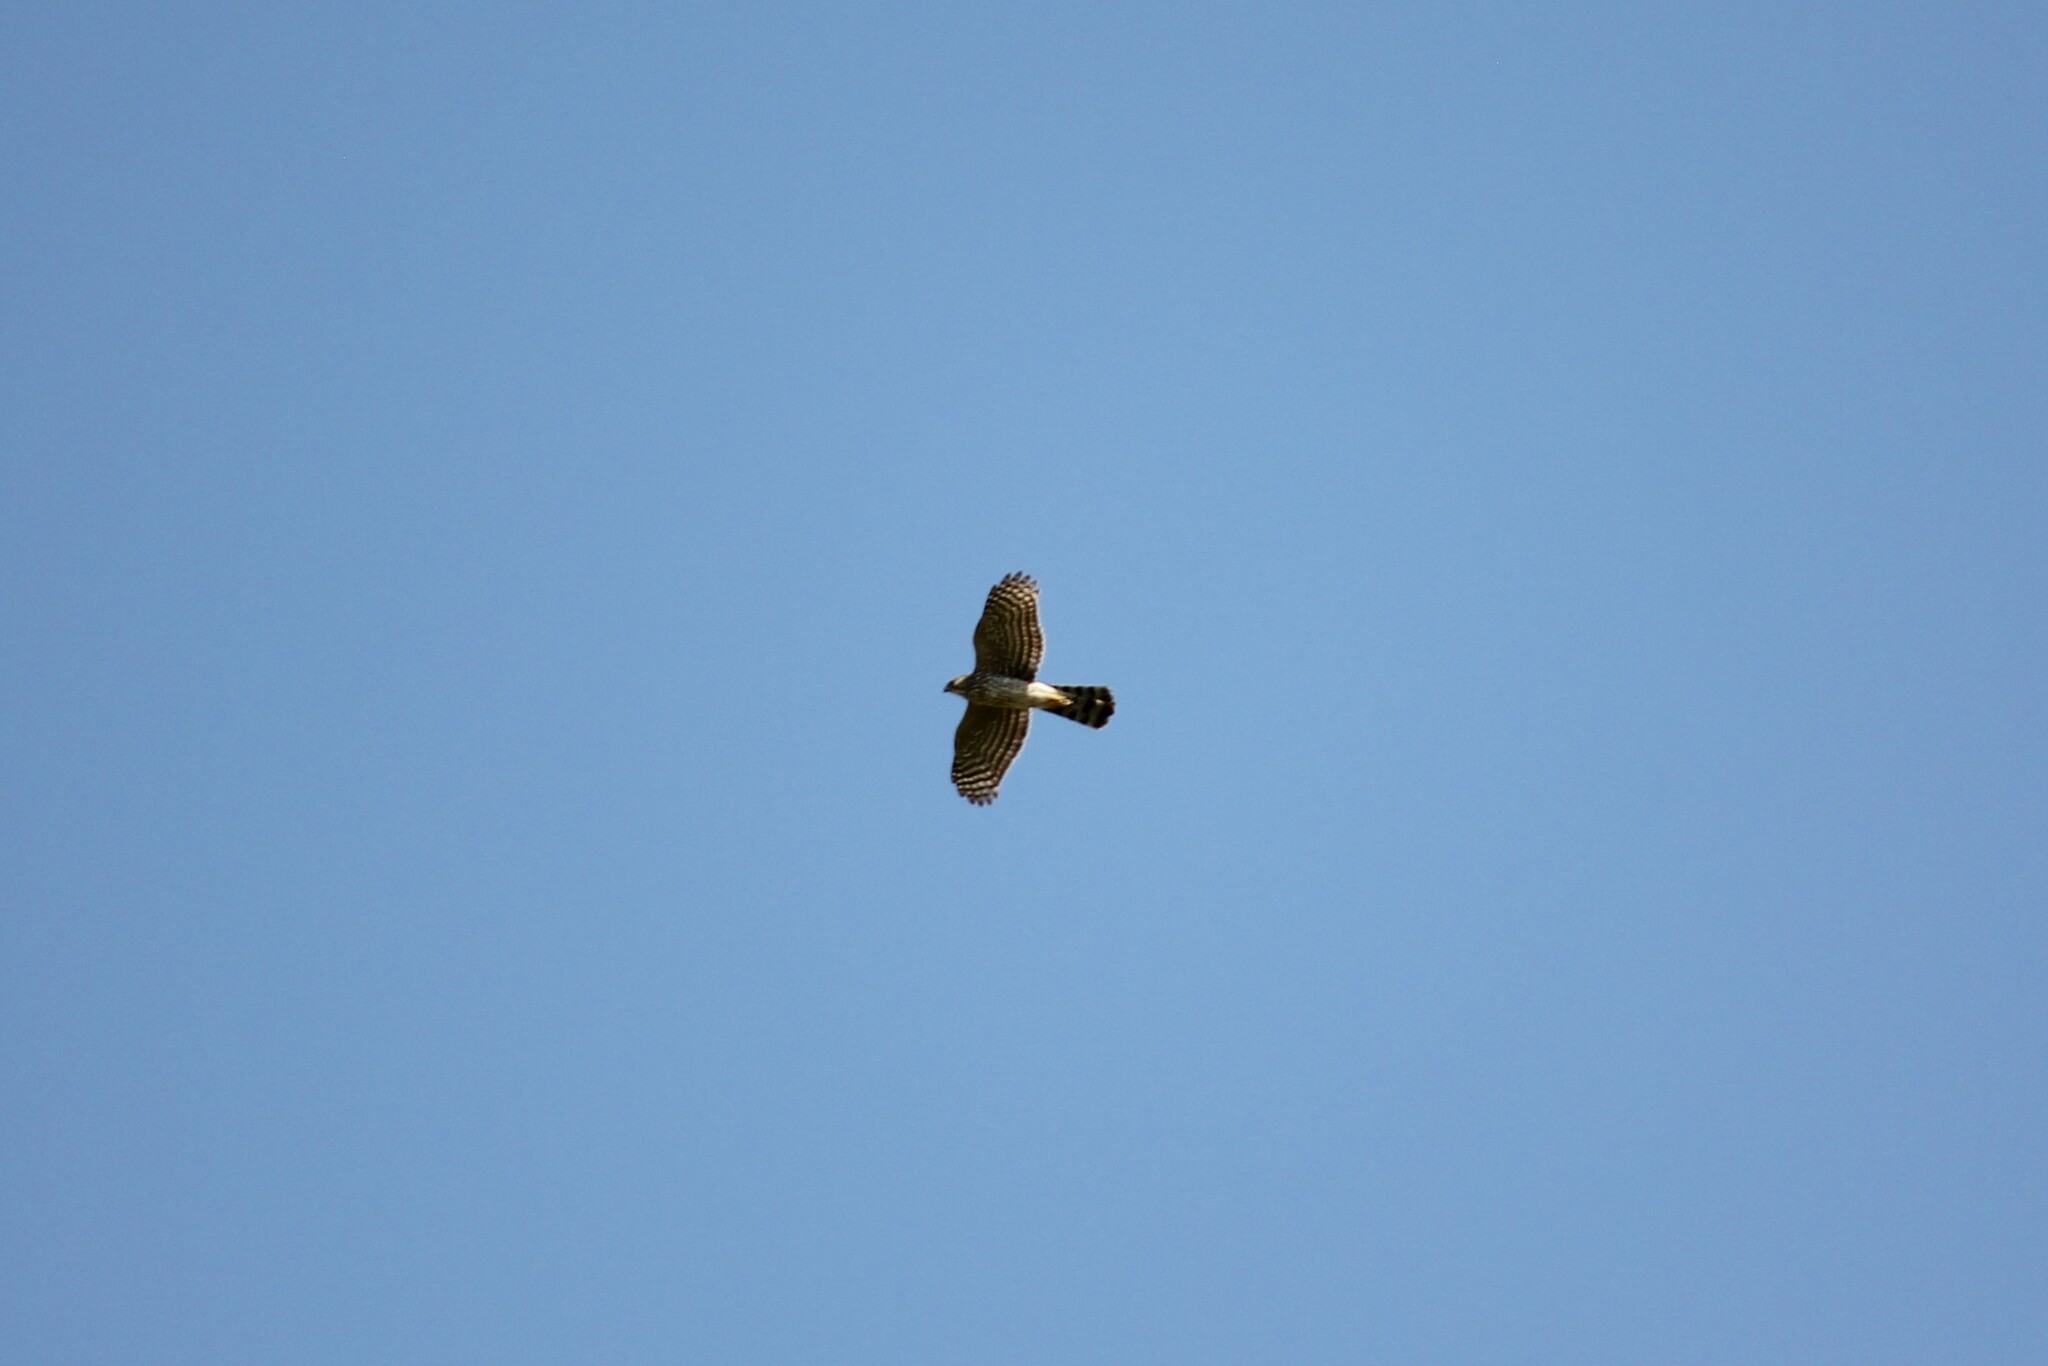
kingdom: Animalia
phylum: Chordata
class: Aves
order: Accipitriformes
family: Accipitridae
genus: Accipiter
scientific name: Accipiter cooperii
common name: Cooper's hawk
